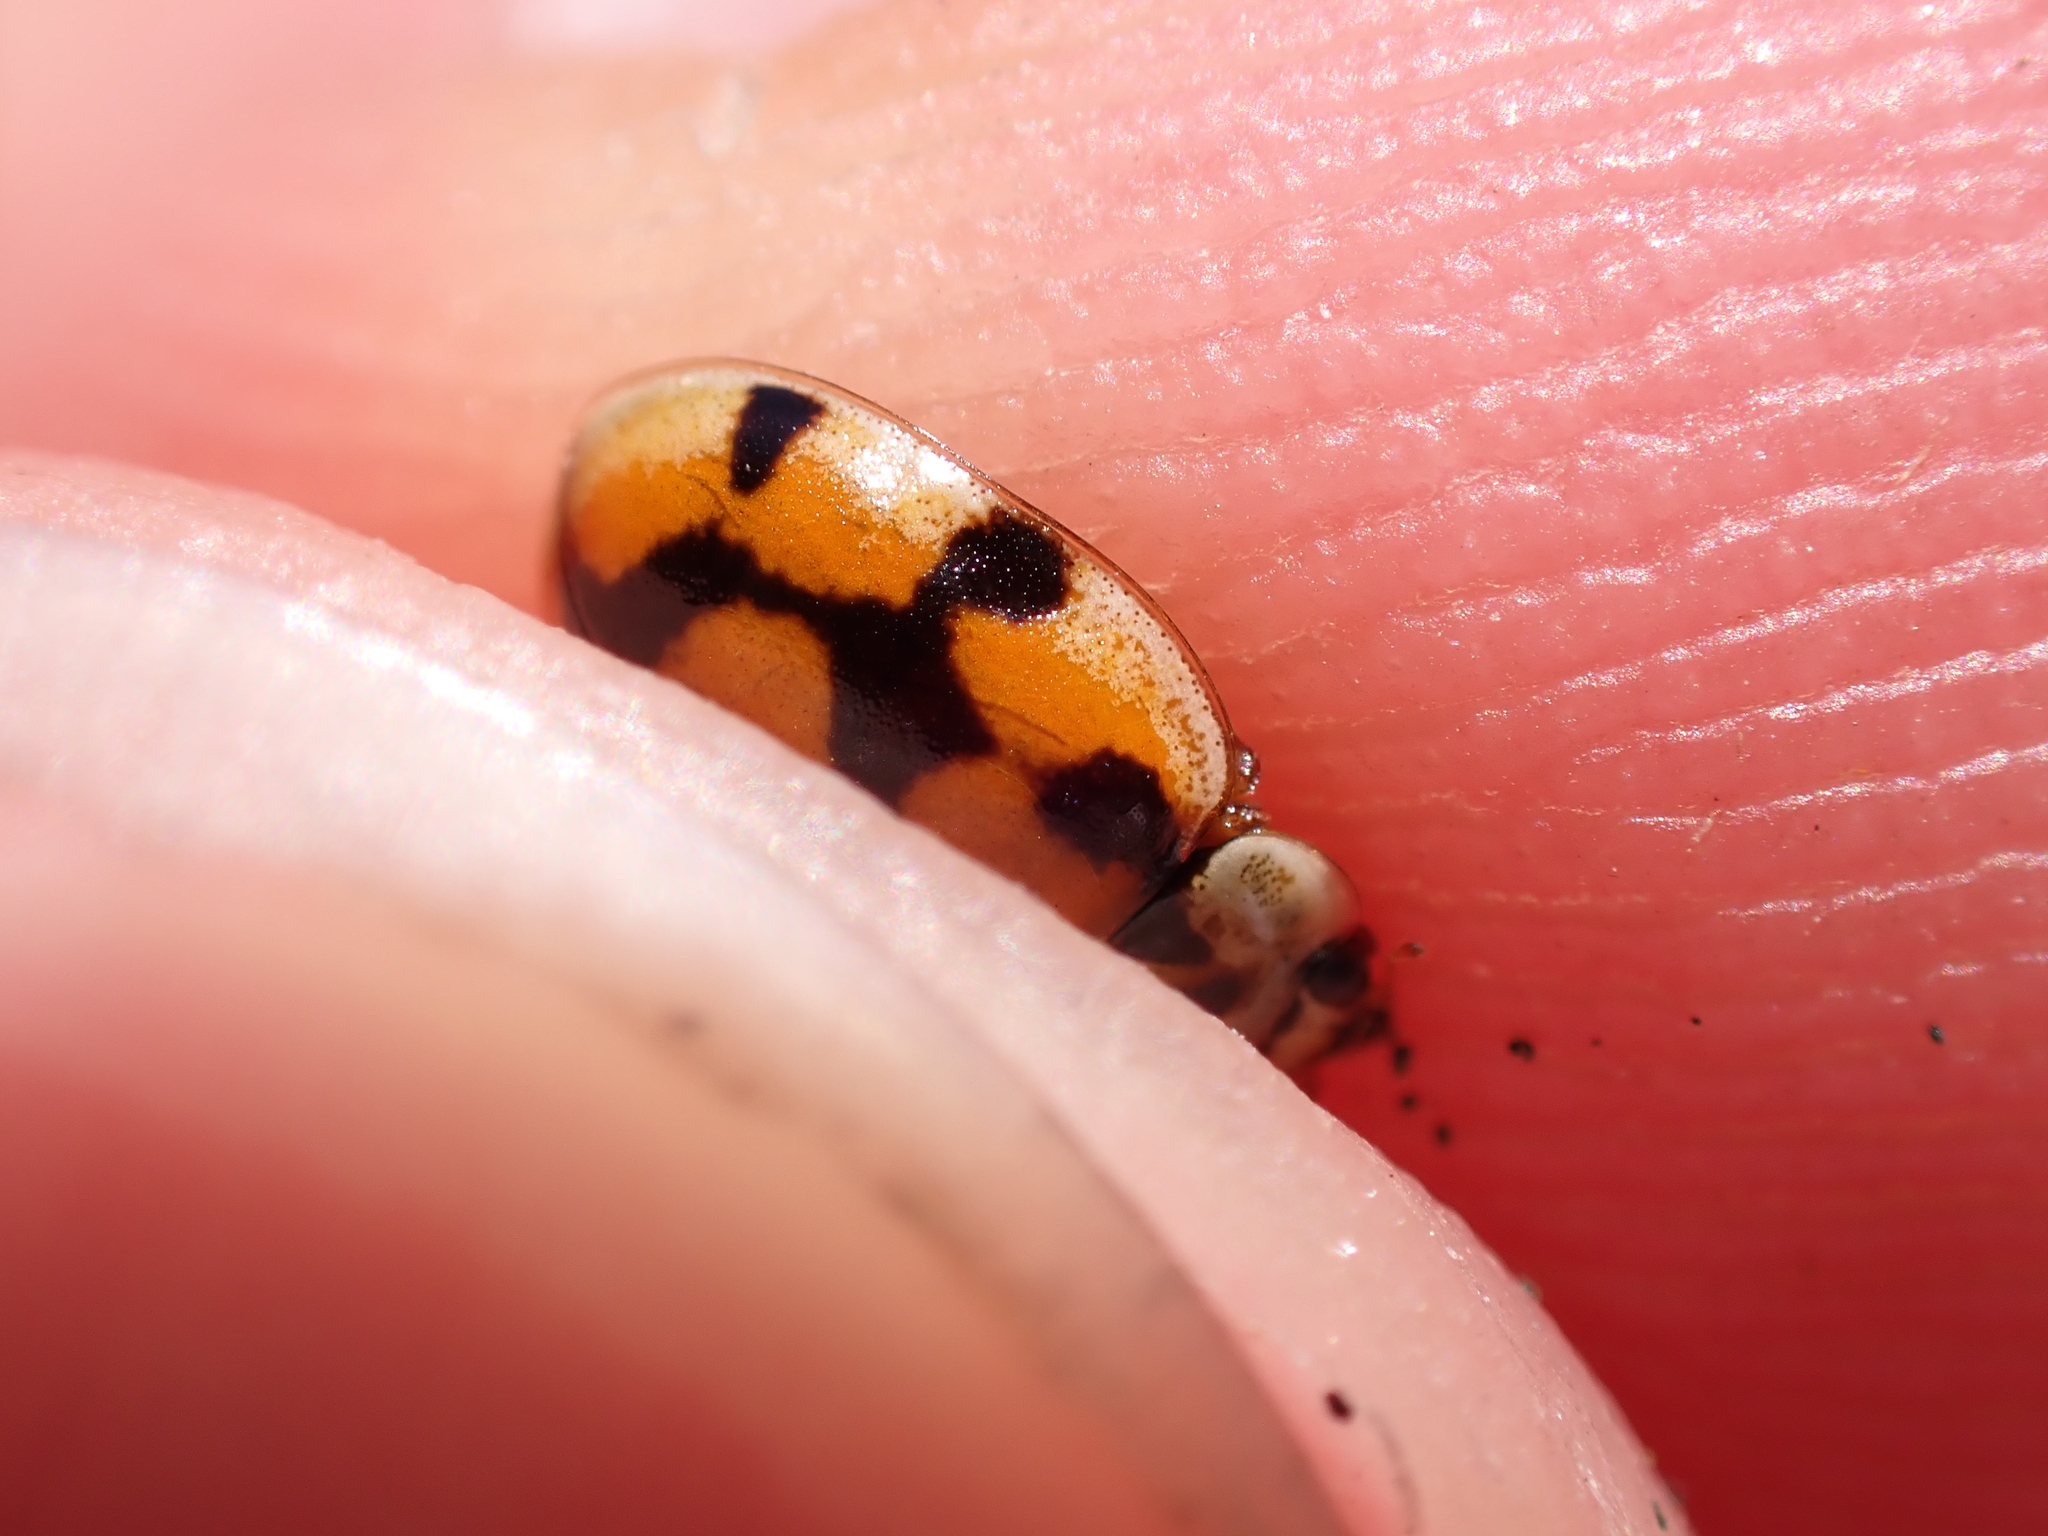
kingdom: Animalia
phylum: Arthropoda
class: Insecta
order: Coleoptera
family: Coccinellidae
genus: Adalia
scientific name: Adalia decempunctata
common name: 10-spot ladybird
